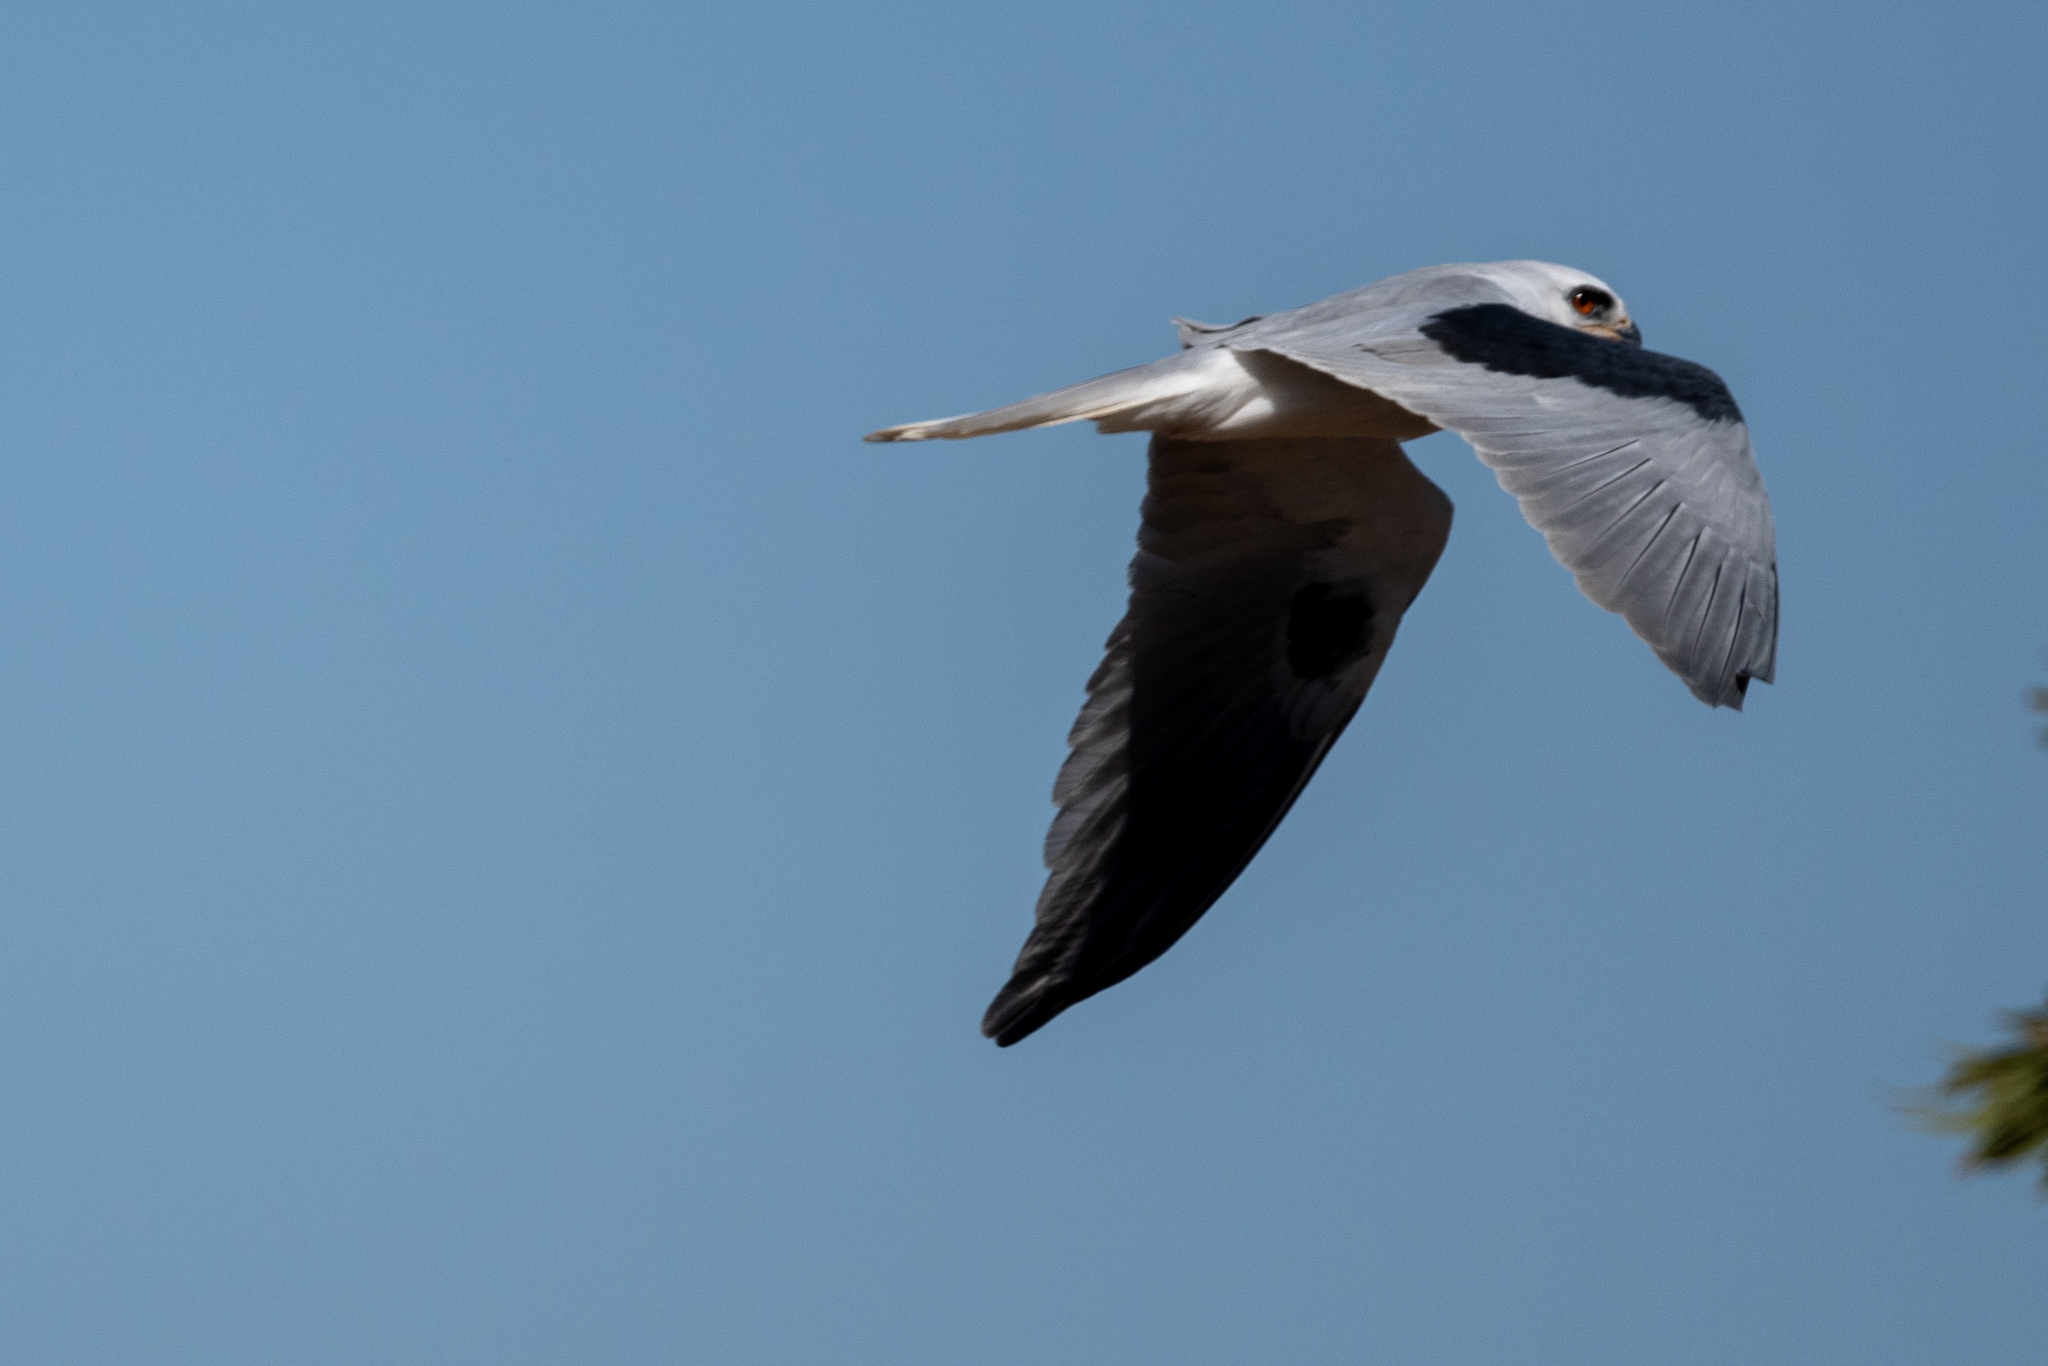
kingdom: Animalia
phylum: Chordata
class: Aves
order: Accipitriformes
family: Accipitridae
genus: Elanus
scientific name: Elanus leucurus
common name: White-tailed kite
